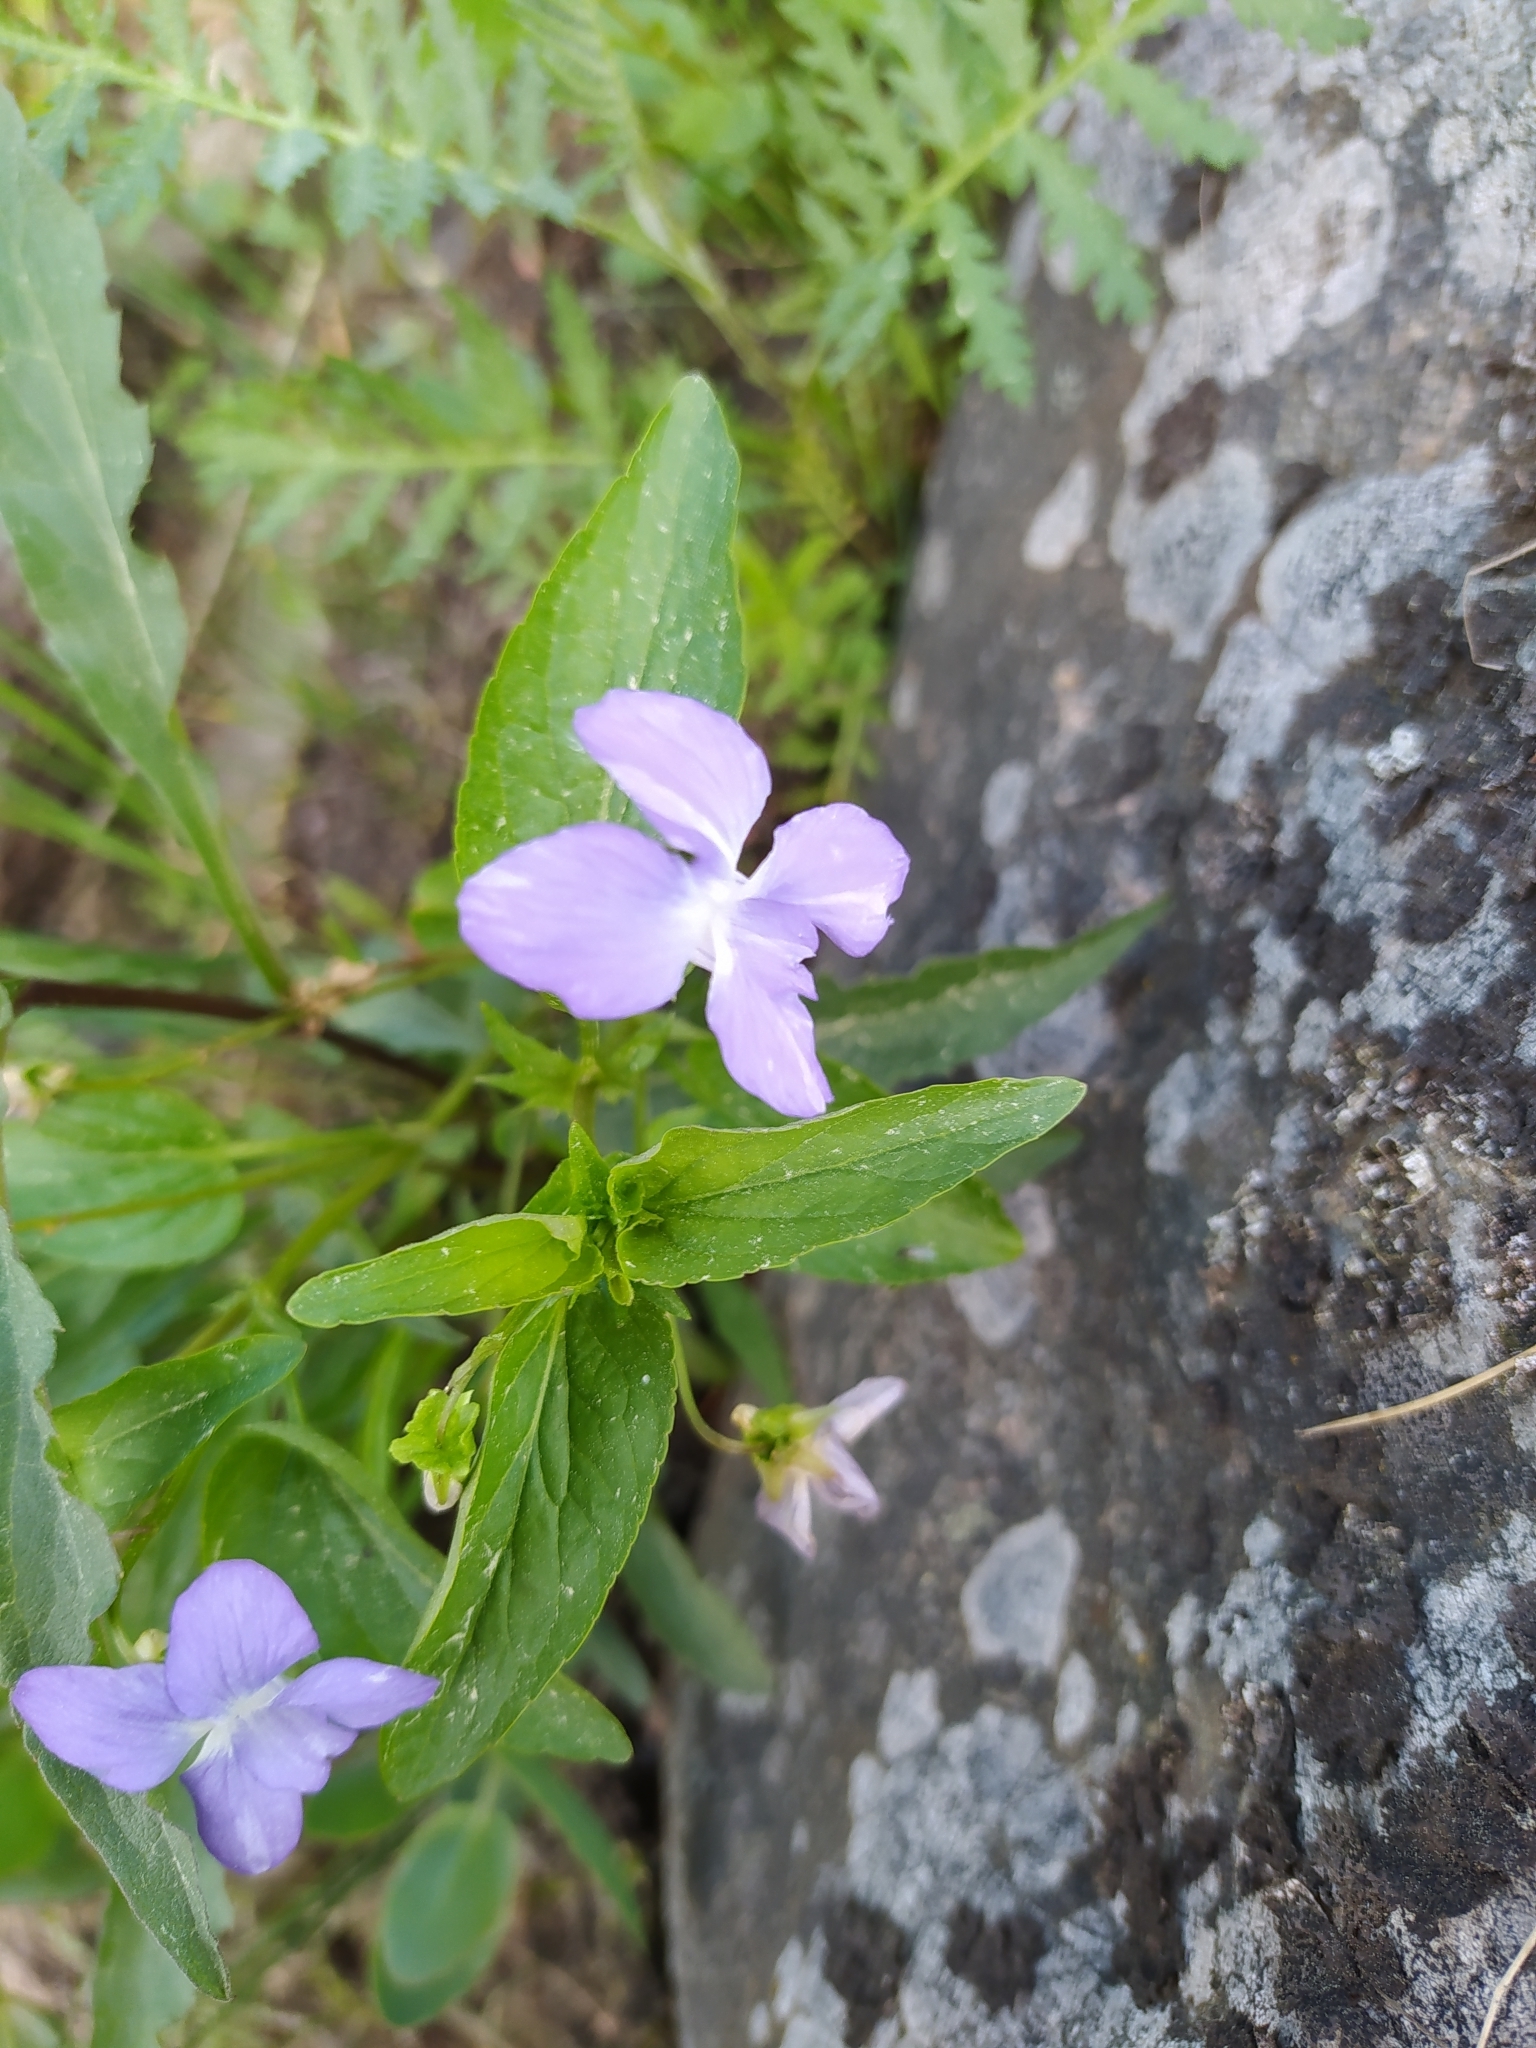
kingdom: Plantae
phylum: Tracheophyta
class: Magnoliopsida
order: Malpighiales
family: Violaceae
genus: Viola
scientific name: Viola canina
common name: Heath dog-violet
